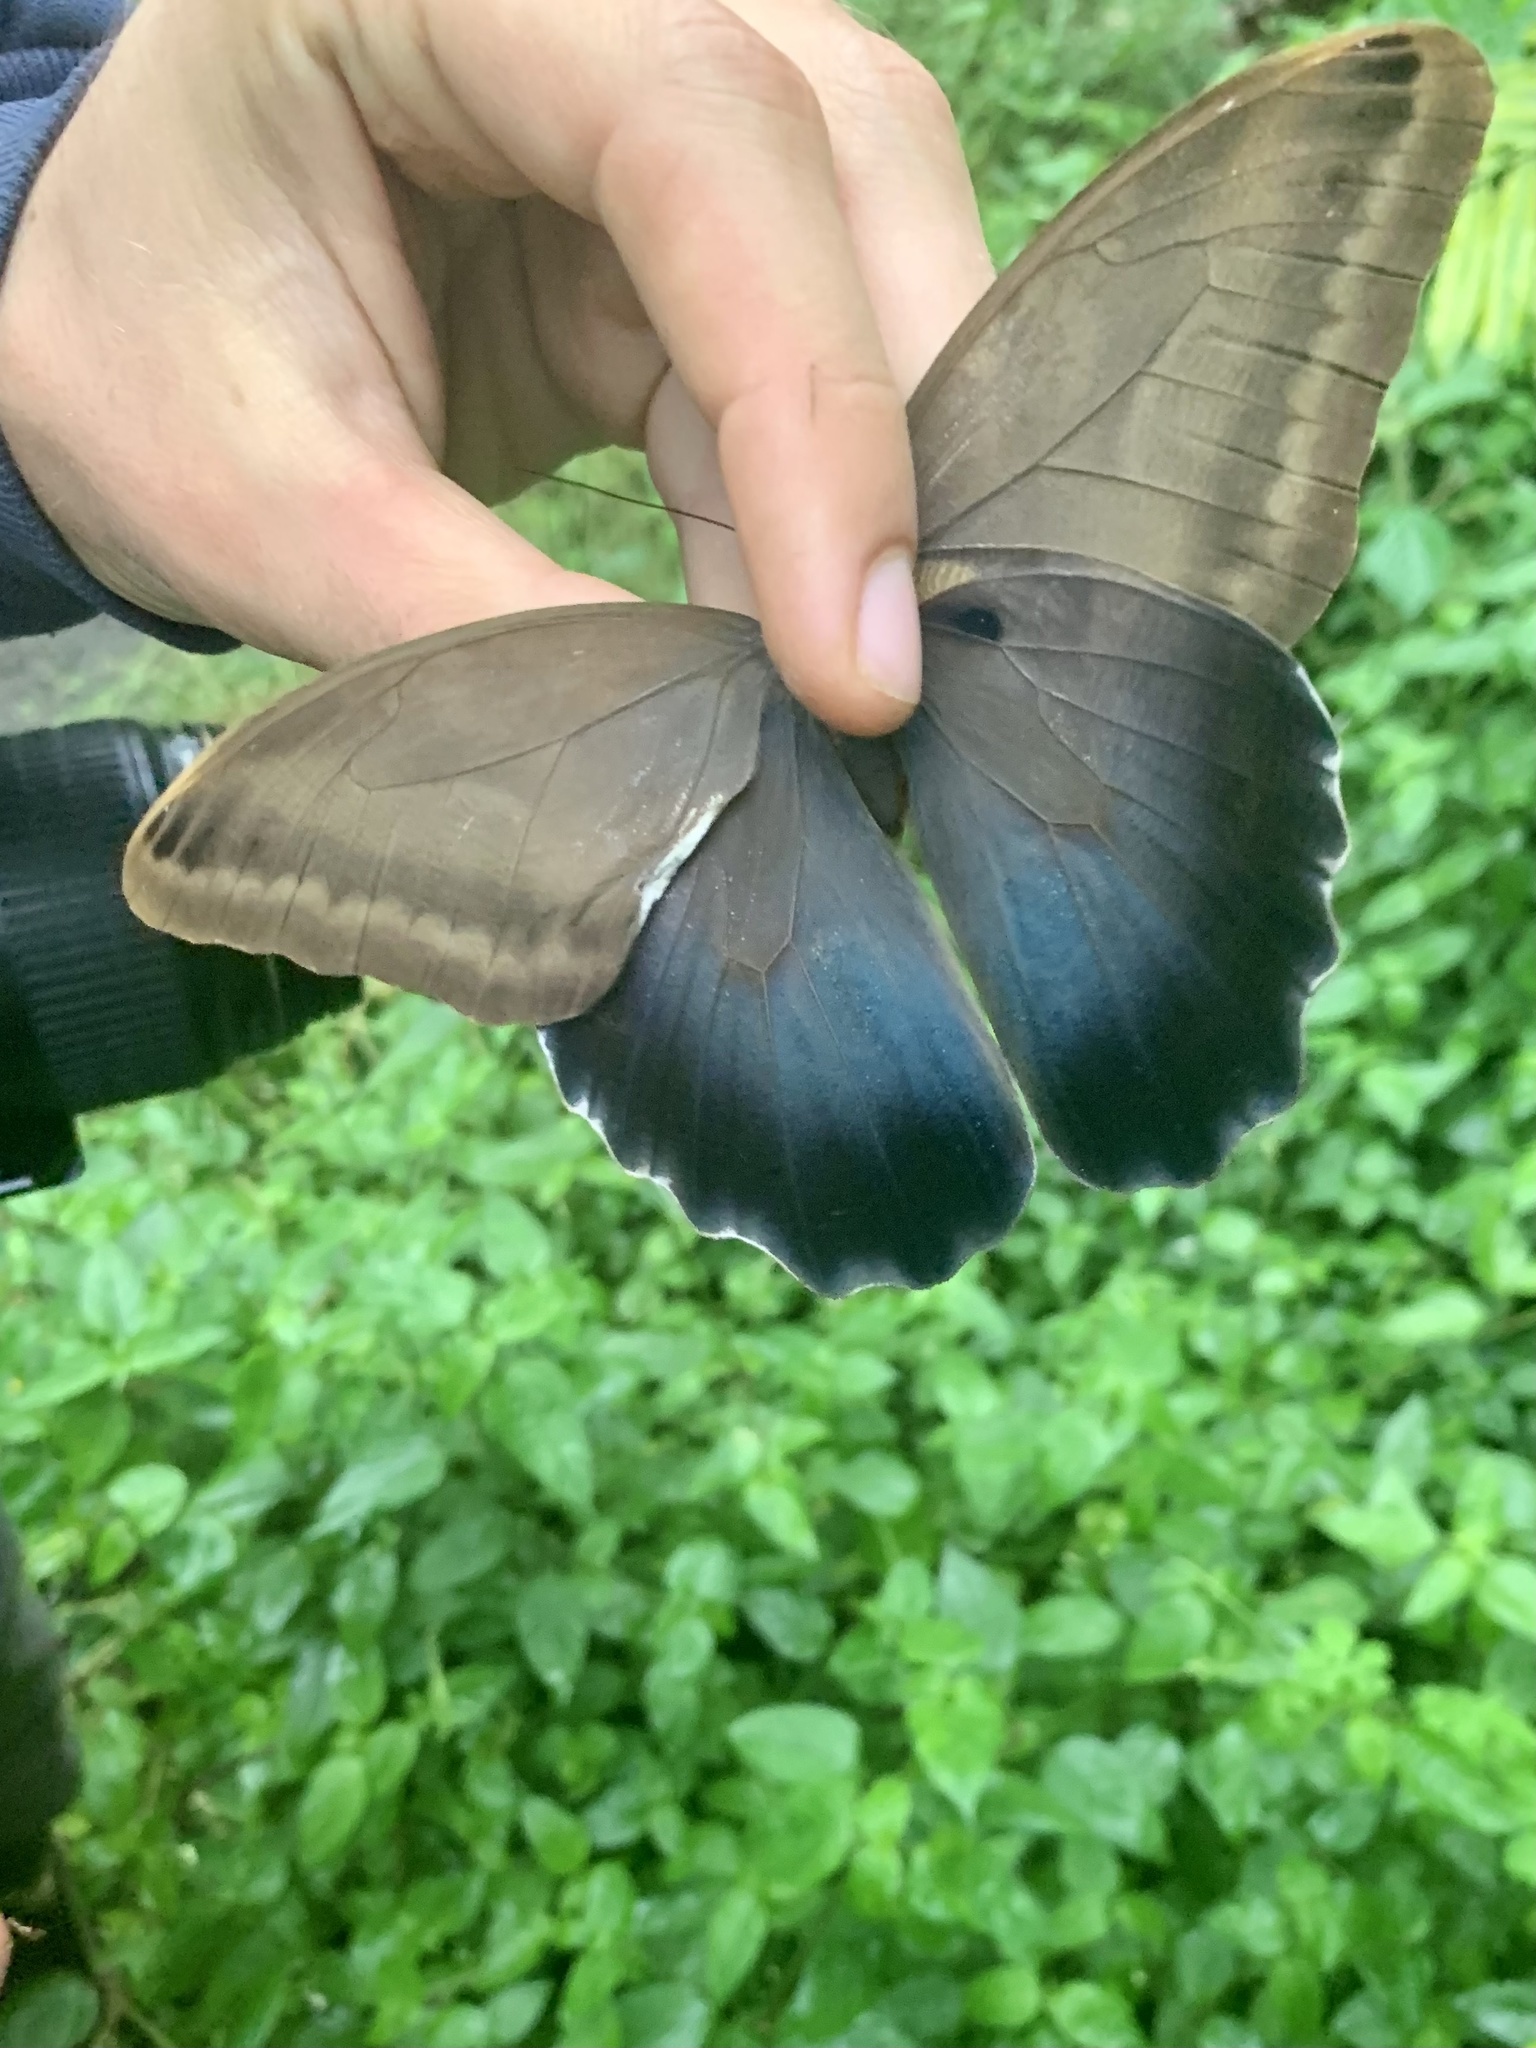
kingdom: Animalia
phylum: Arthropoda
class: Insecta
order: Lepidoptera
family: Nymphalidae
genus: Caligo
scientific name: Caligo zeuxippus
